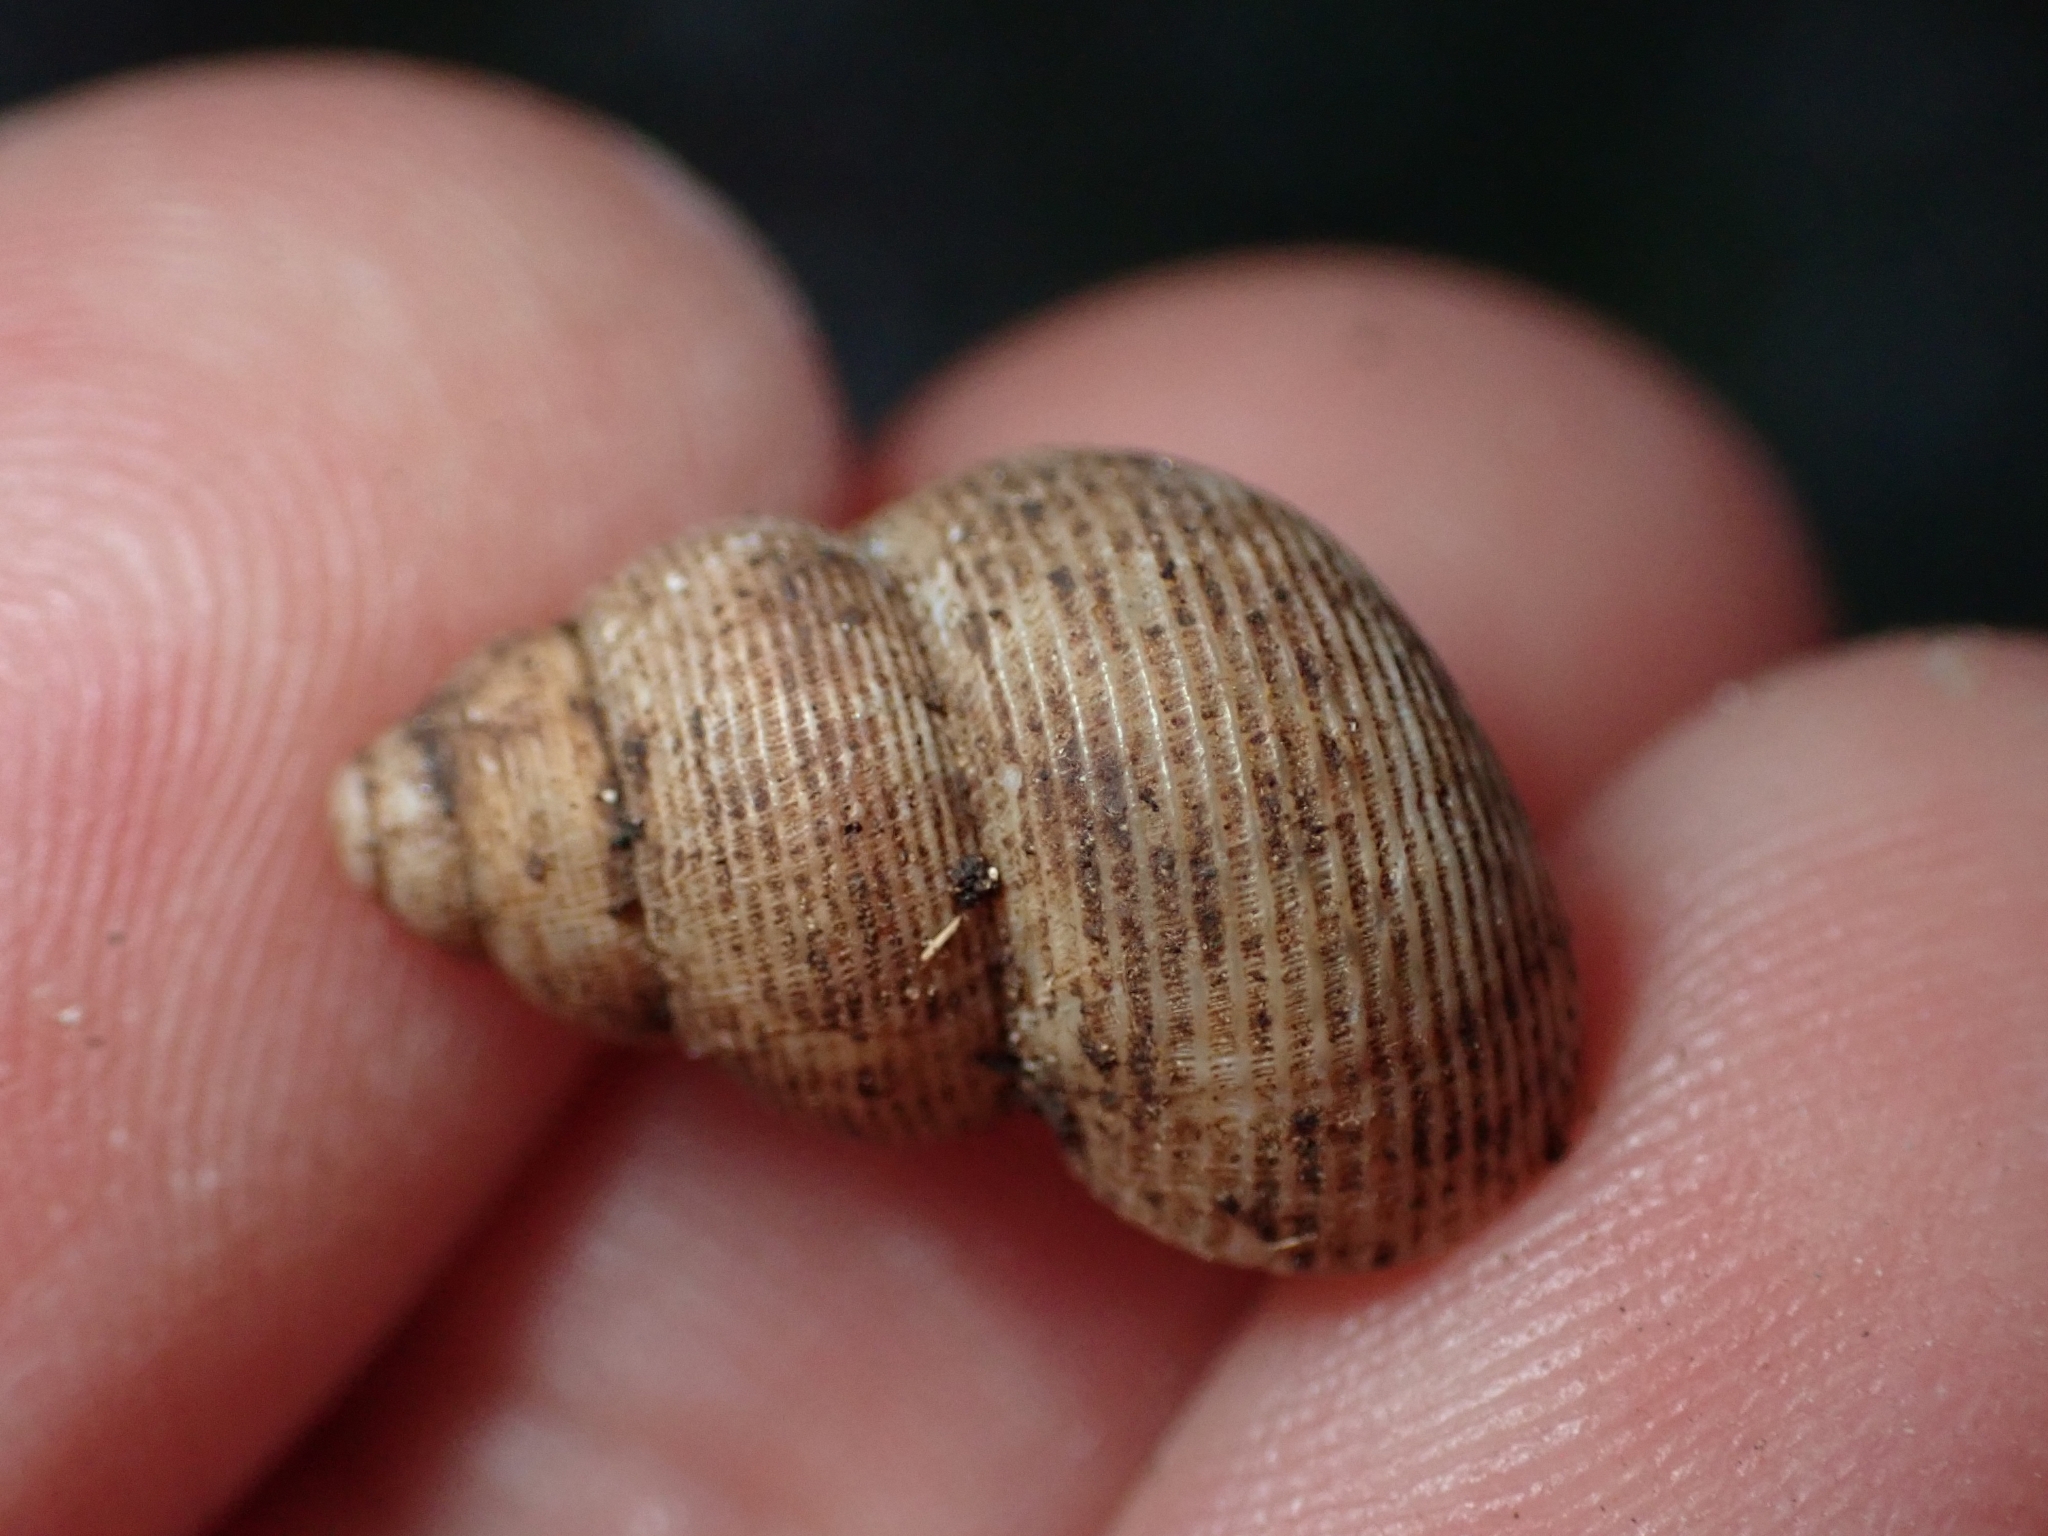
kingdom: Animalia
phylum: Mollusca
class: Gastropoda
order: Littorinimorpha
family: Pomatiidae
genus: Pomatias
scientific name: Pomatias elegans
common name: Red-mouthed snail
